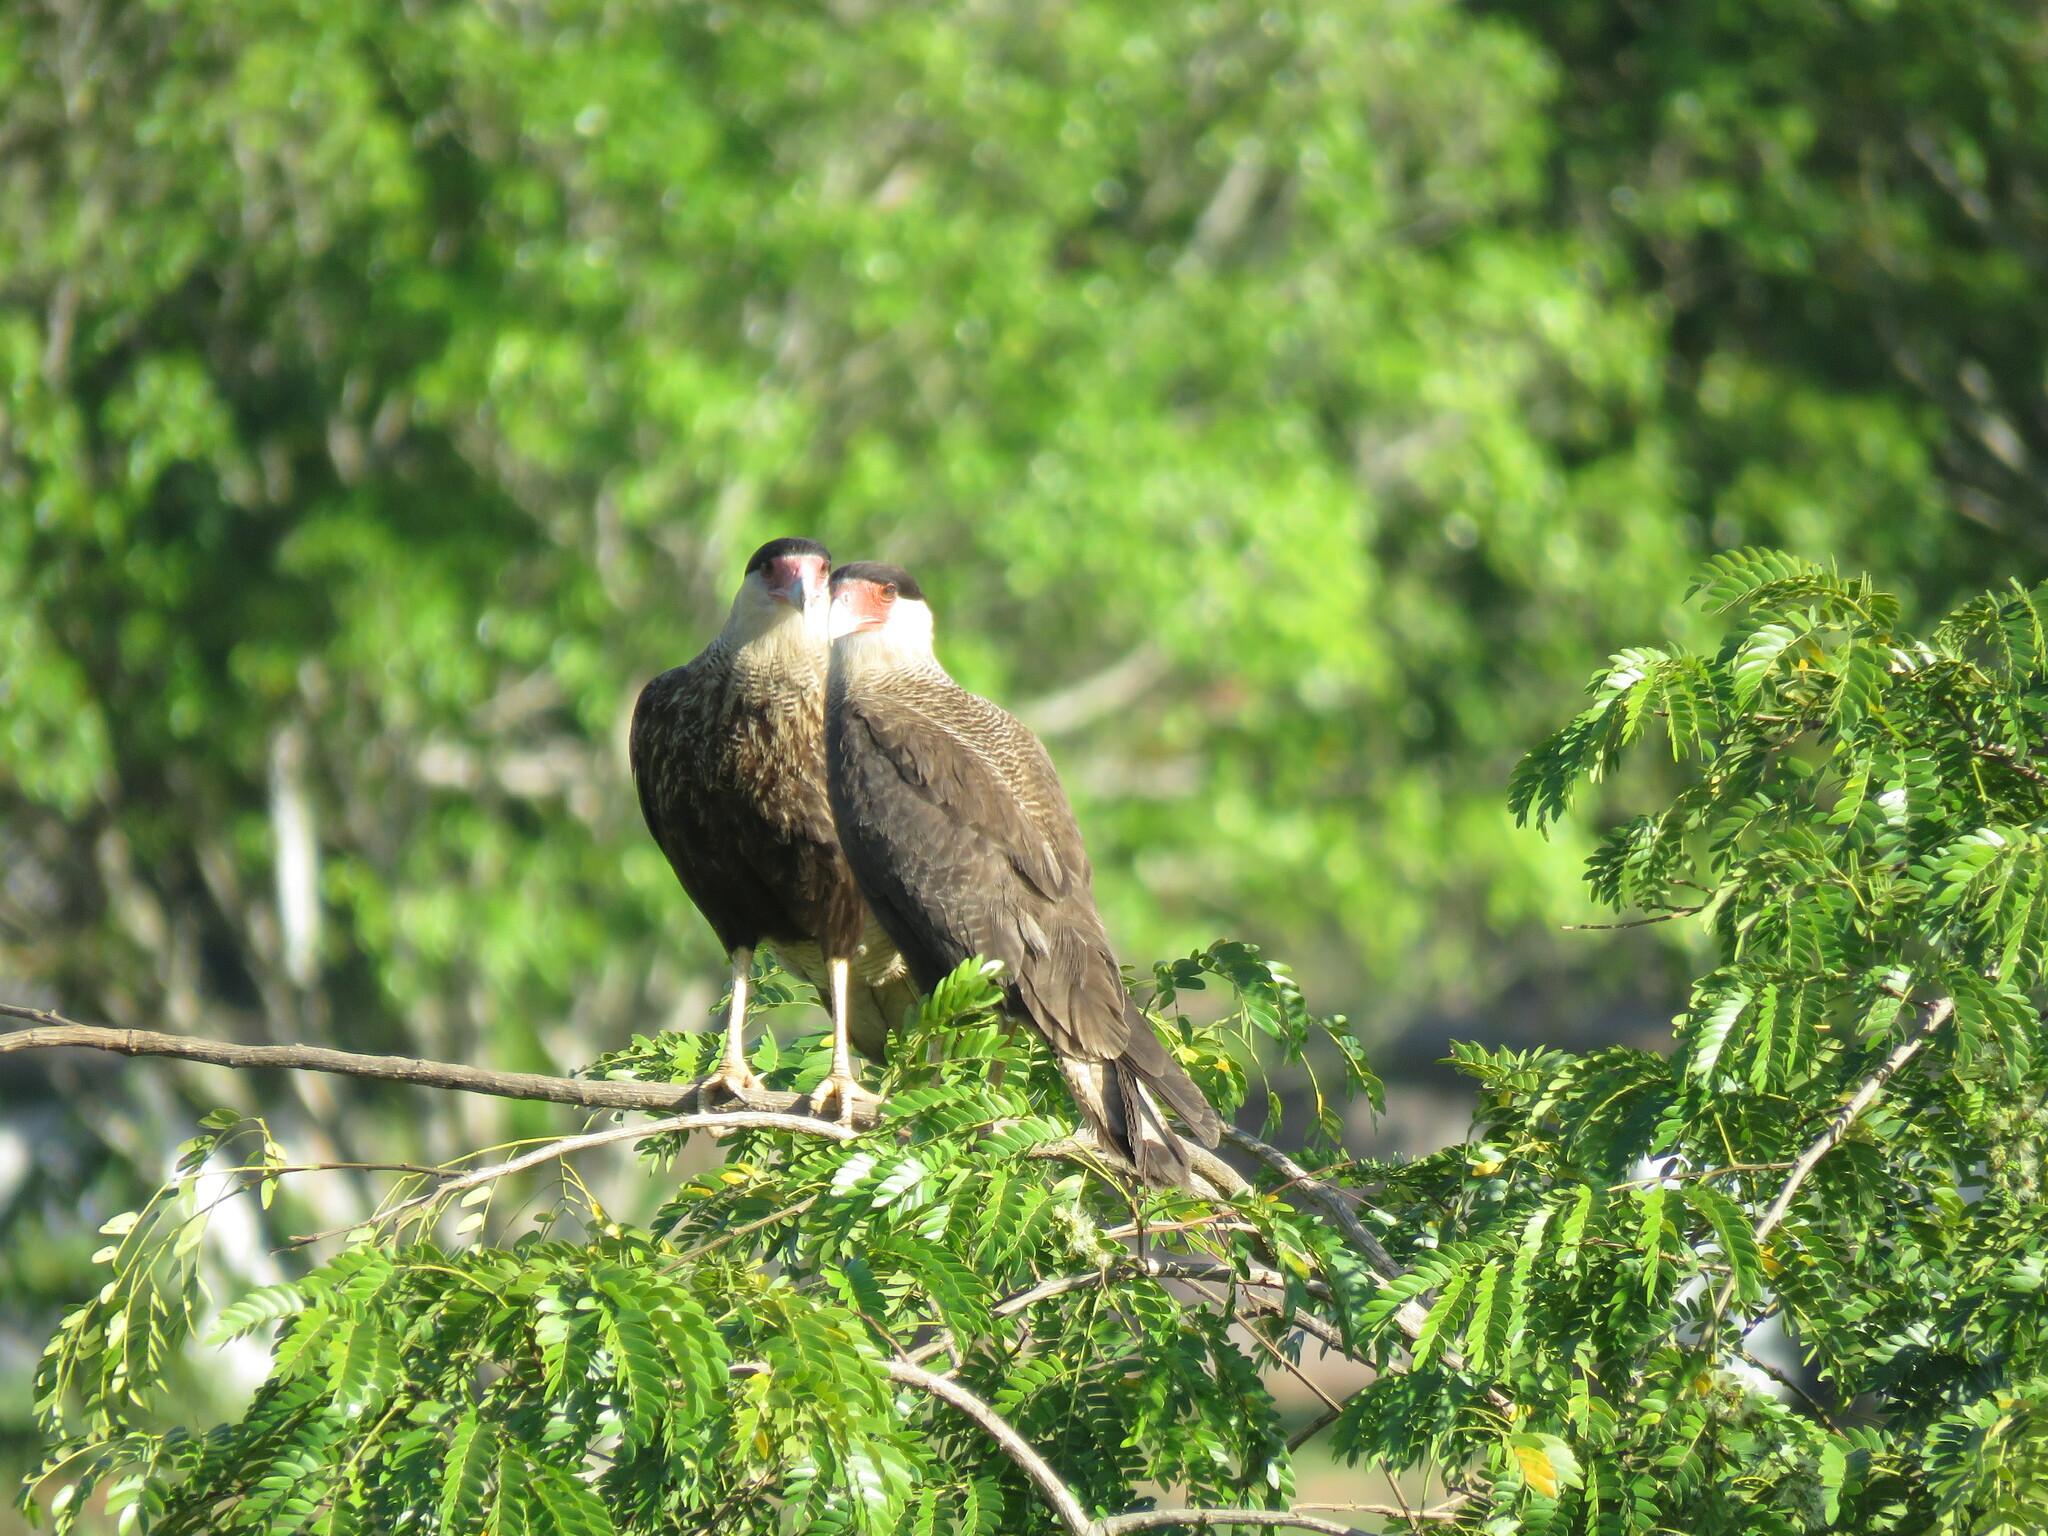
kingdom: Animalia
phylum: Chordata
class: Aves
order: Falconiformes
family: Falconidae
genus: Caracara
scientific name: Caracara plancus
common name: Southern caracara
